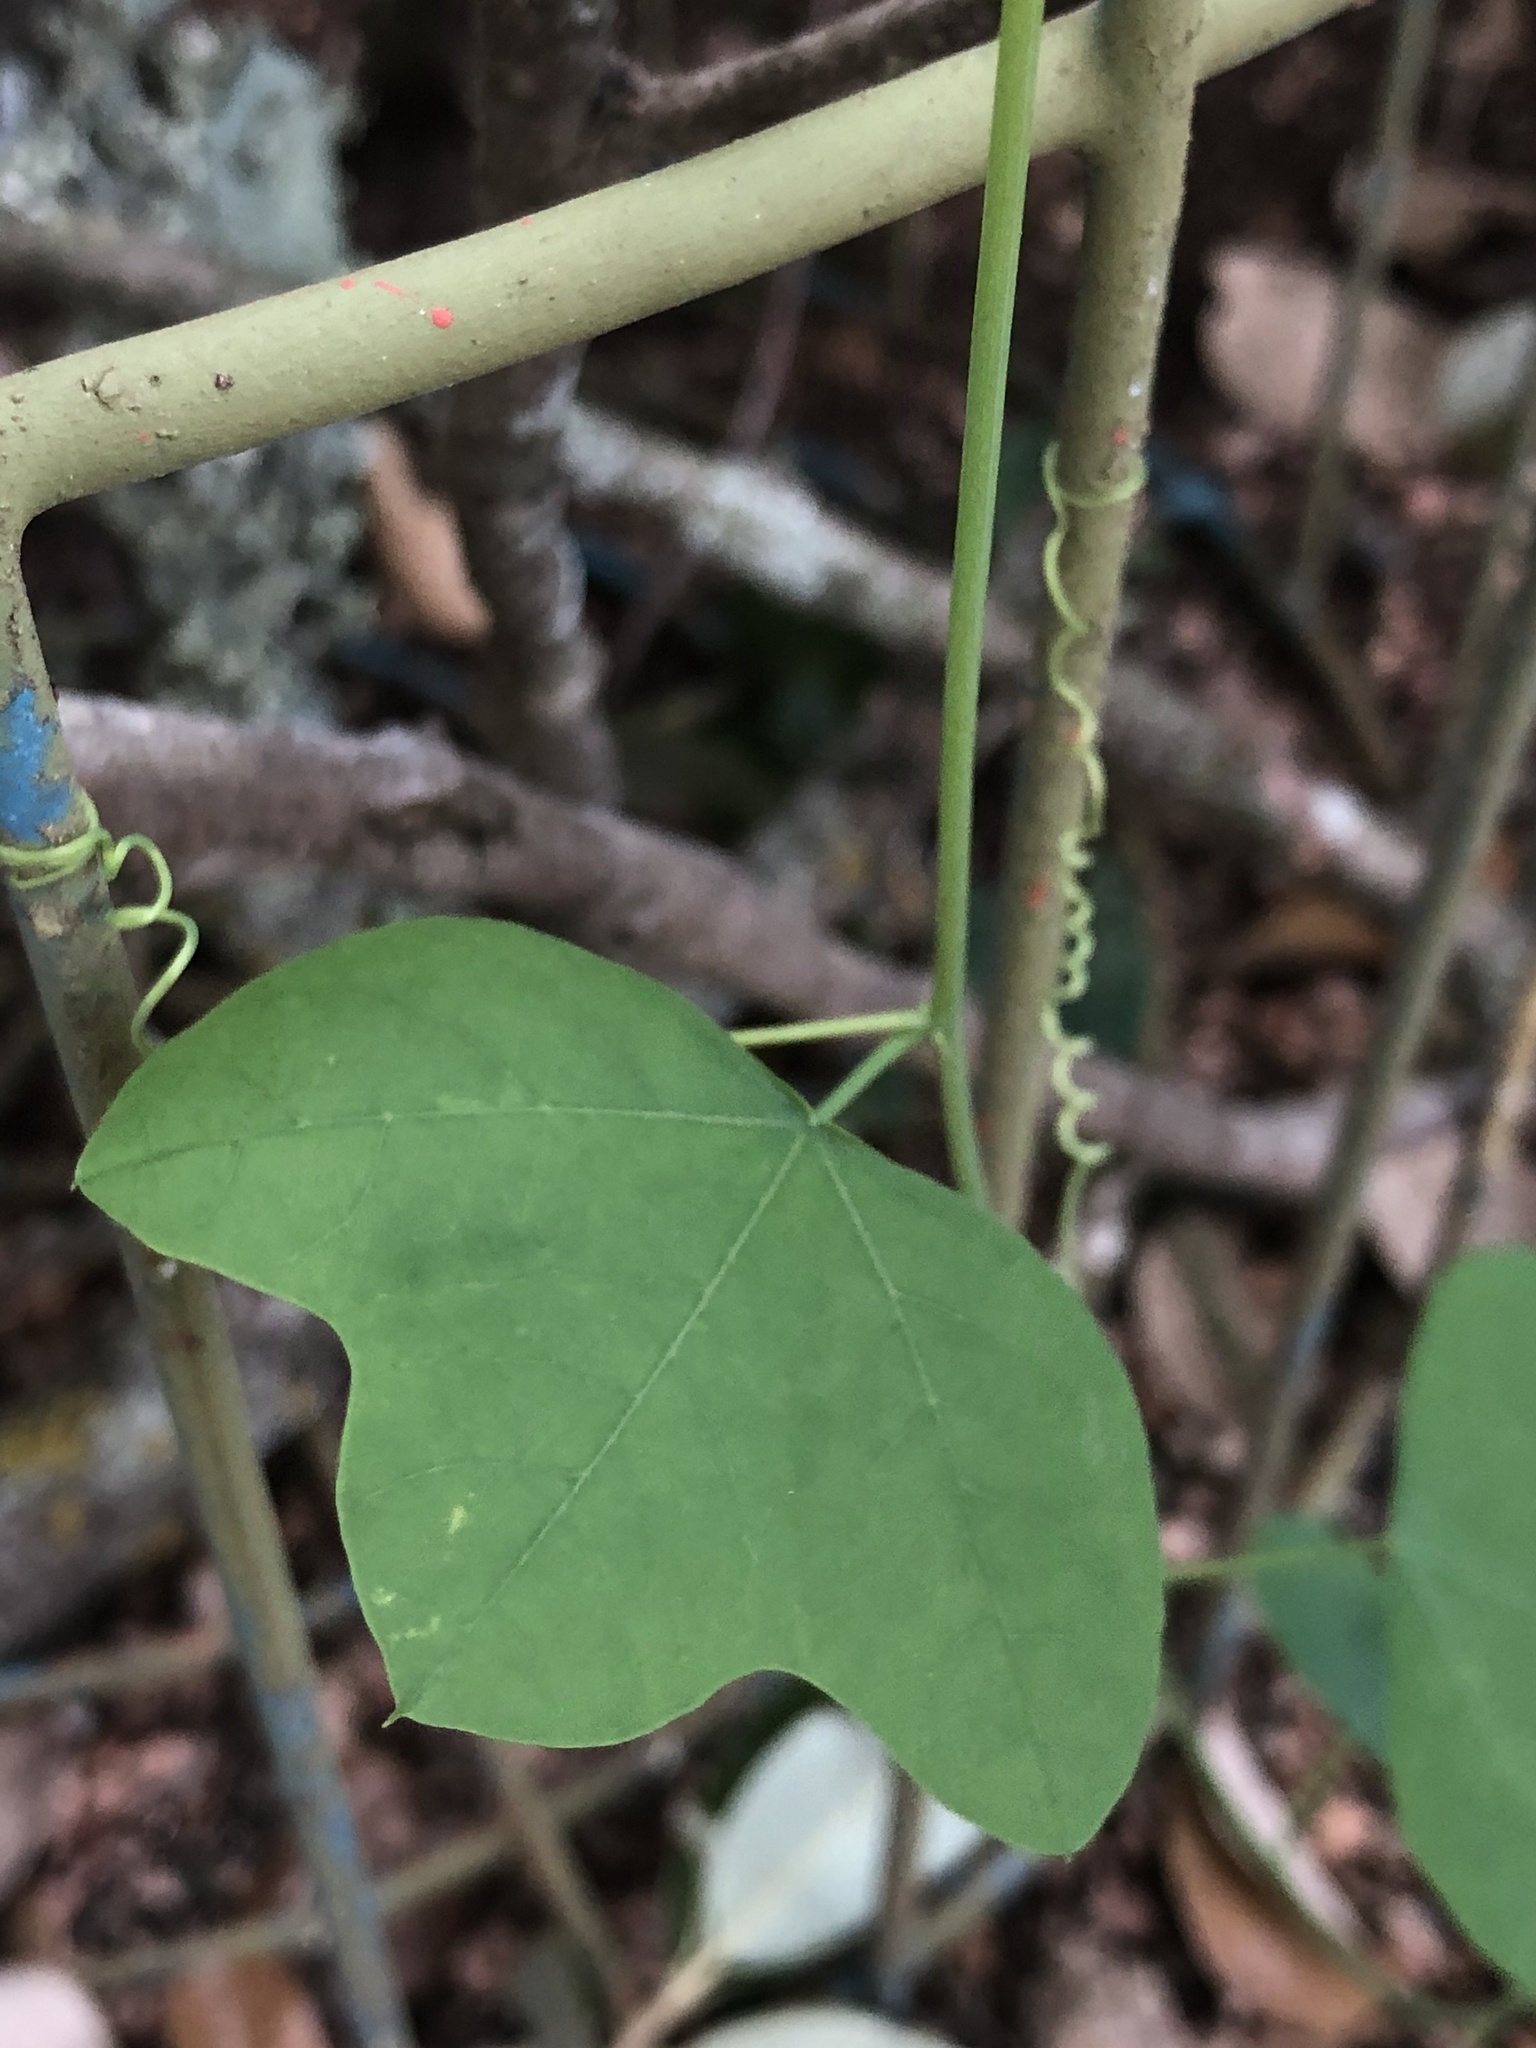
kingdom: Plantae
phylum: Tracheophyta
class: Magnoliopsida
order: Malpighiales
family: Passifloraceae
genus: Passiflora
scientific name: Passiflora lutea
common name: Yellow passionflower
